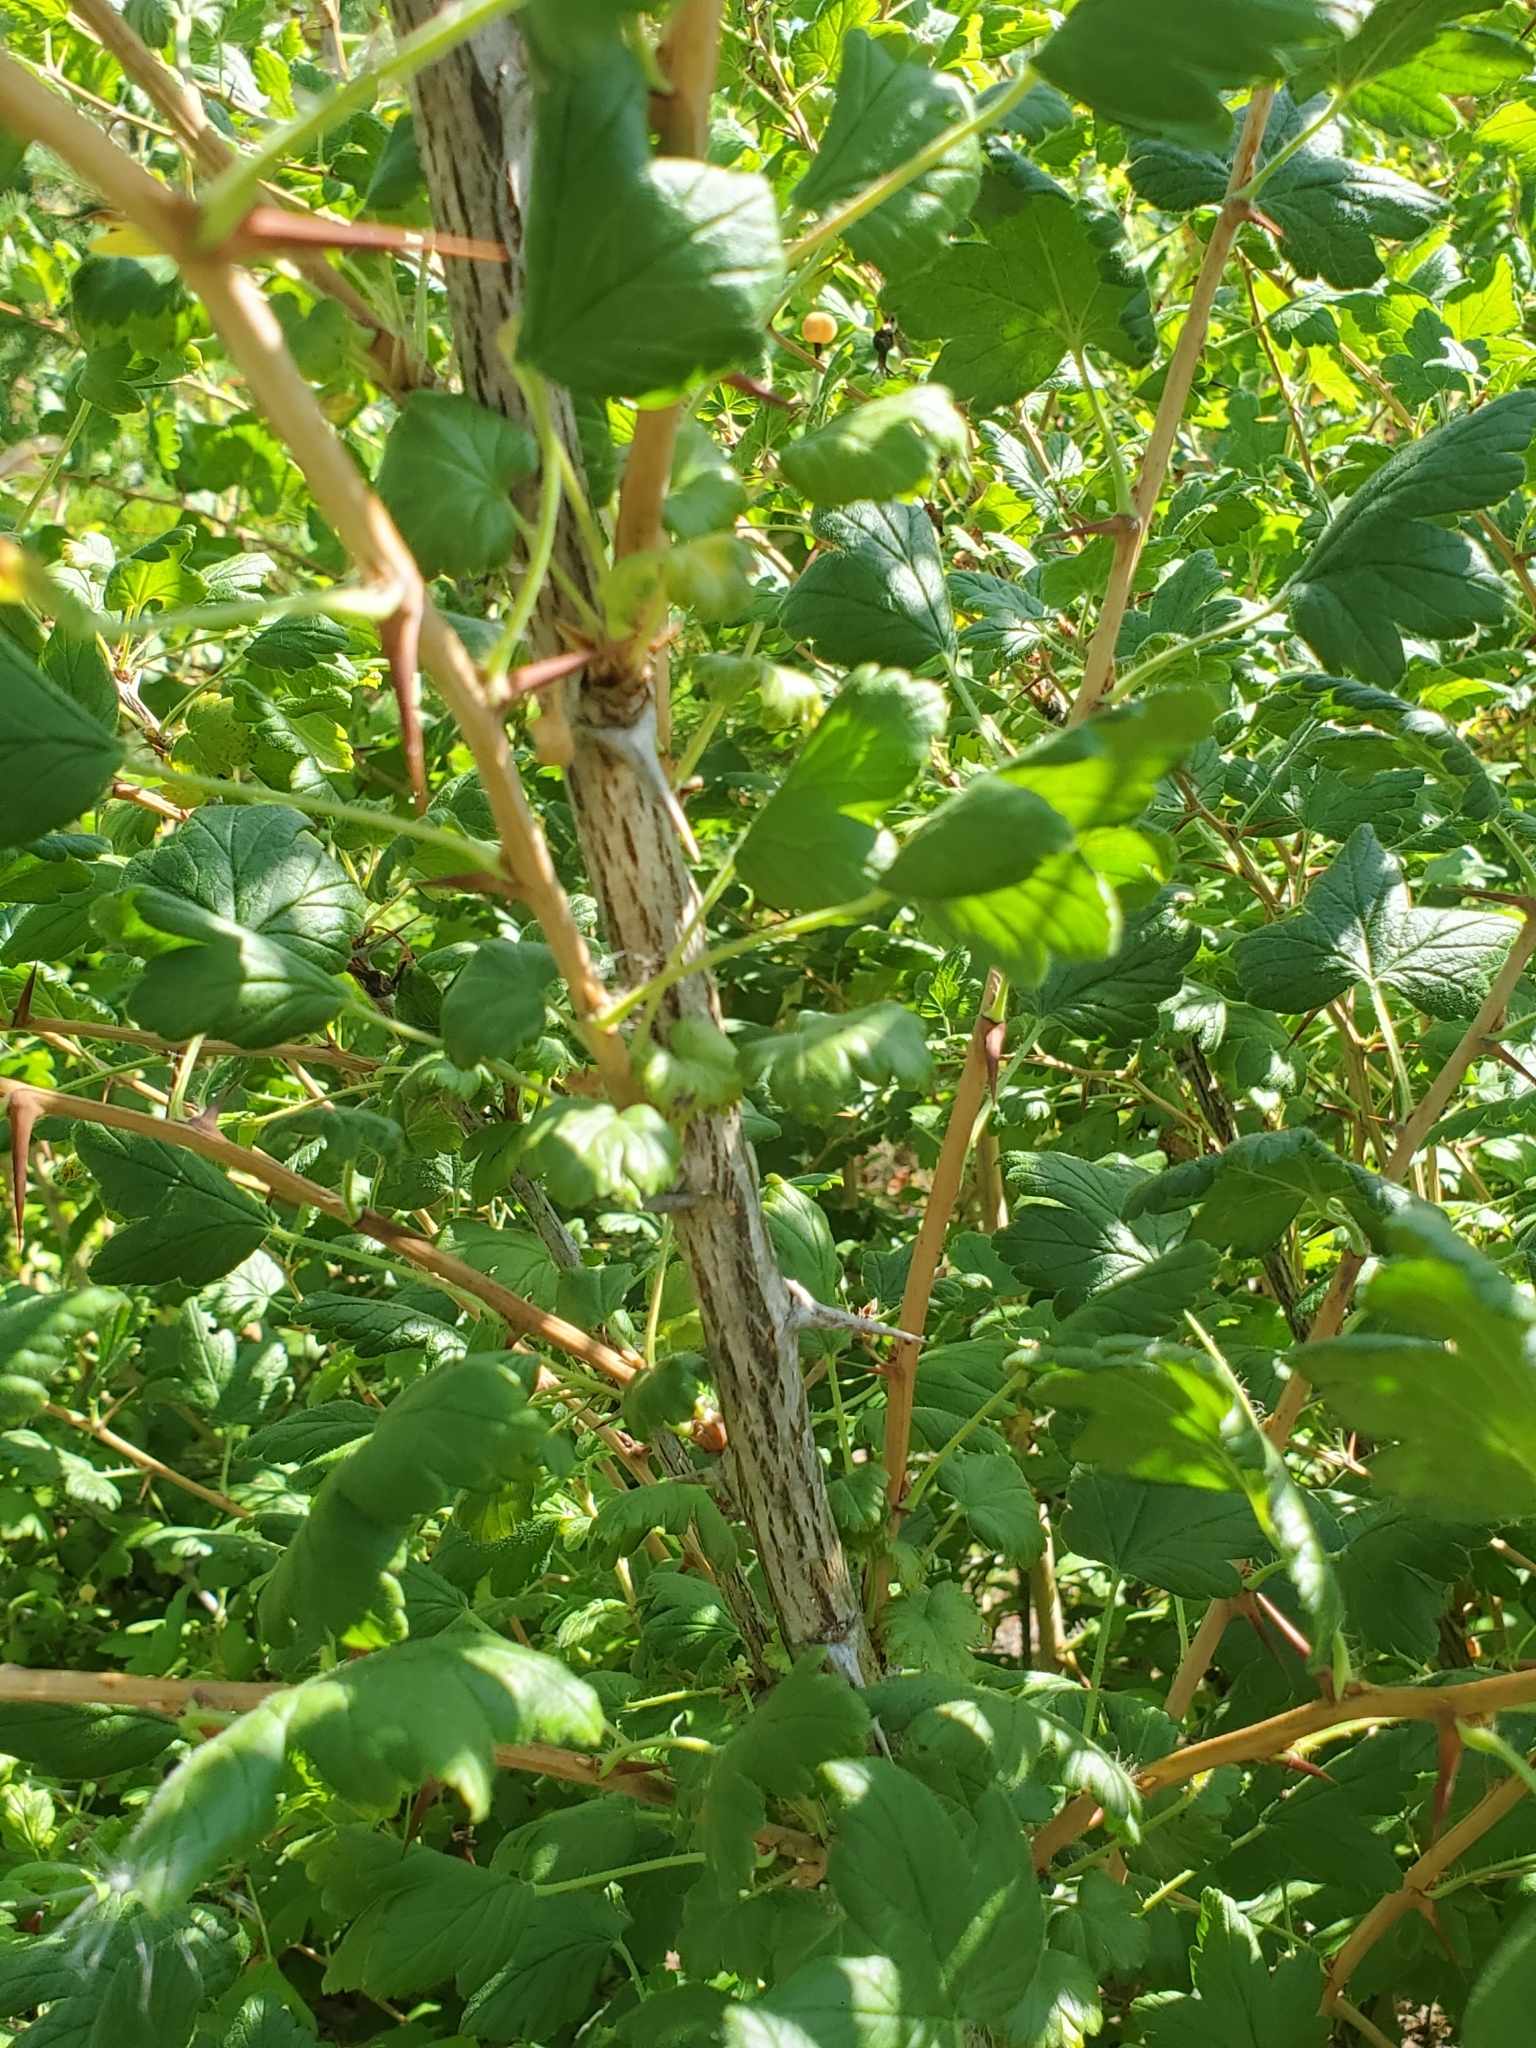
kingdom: Plantae
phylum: Tracheophyta
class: Magnoliopsida
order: Saxifragales
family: Grossulariaceae
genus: Ribes
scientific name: Ribes divaricatum
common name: Wild black gooseberry
